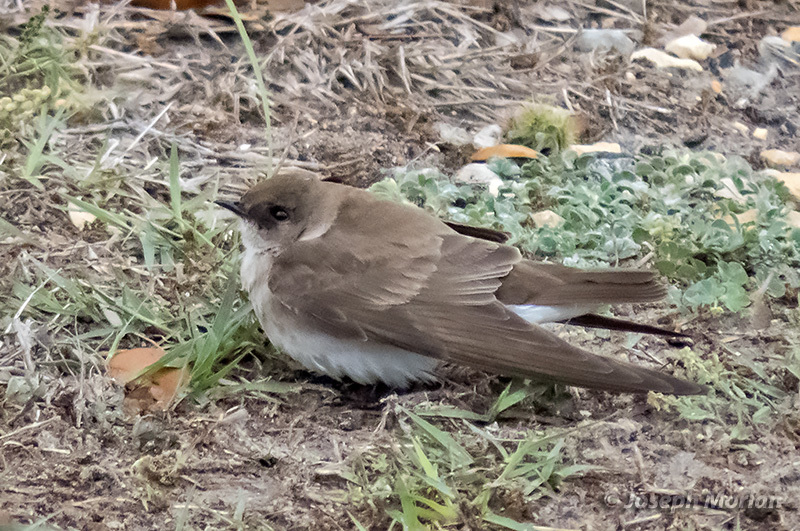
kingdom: Animalia
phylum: Chordata
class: Aves
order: Passeriformes
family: Hirundinidae
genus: Stelgidopteryx
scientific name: Stelgidopteryx serripennis
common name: Northern rough-winged swallow
